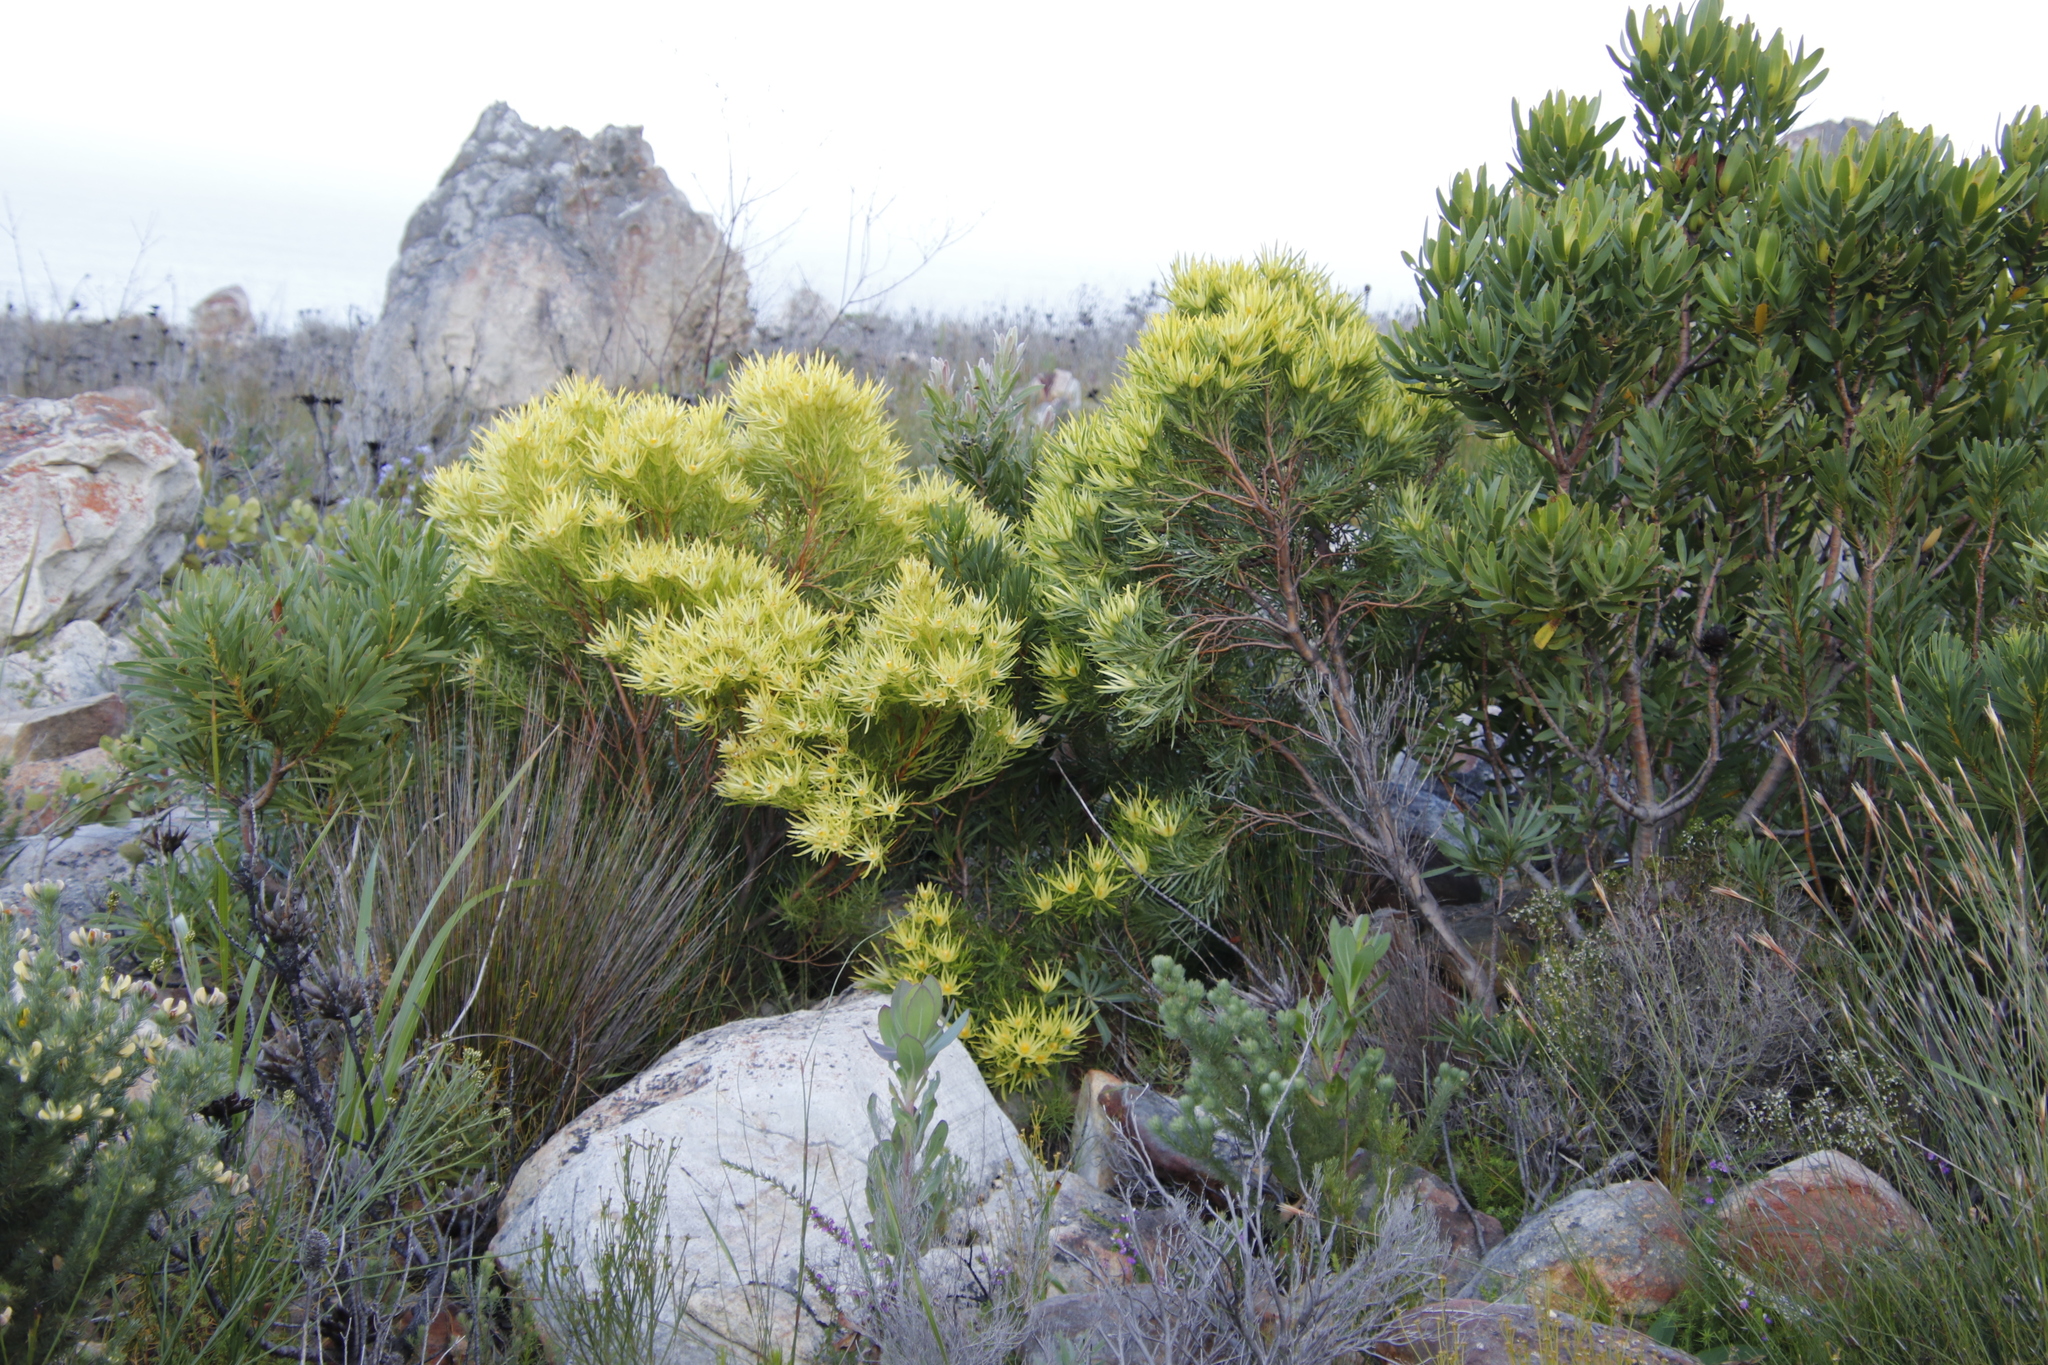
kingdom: Plantae
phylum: Tracheophyta
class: Magnoliopsida
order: Proteales
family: Proteaceae
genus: Leucadendron
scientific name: Leucadendron xanthoconus
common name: Sickle-leaf conebush
